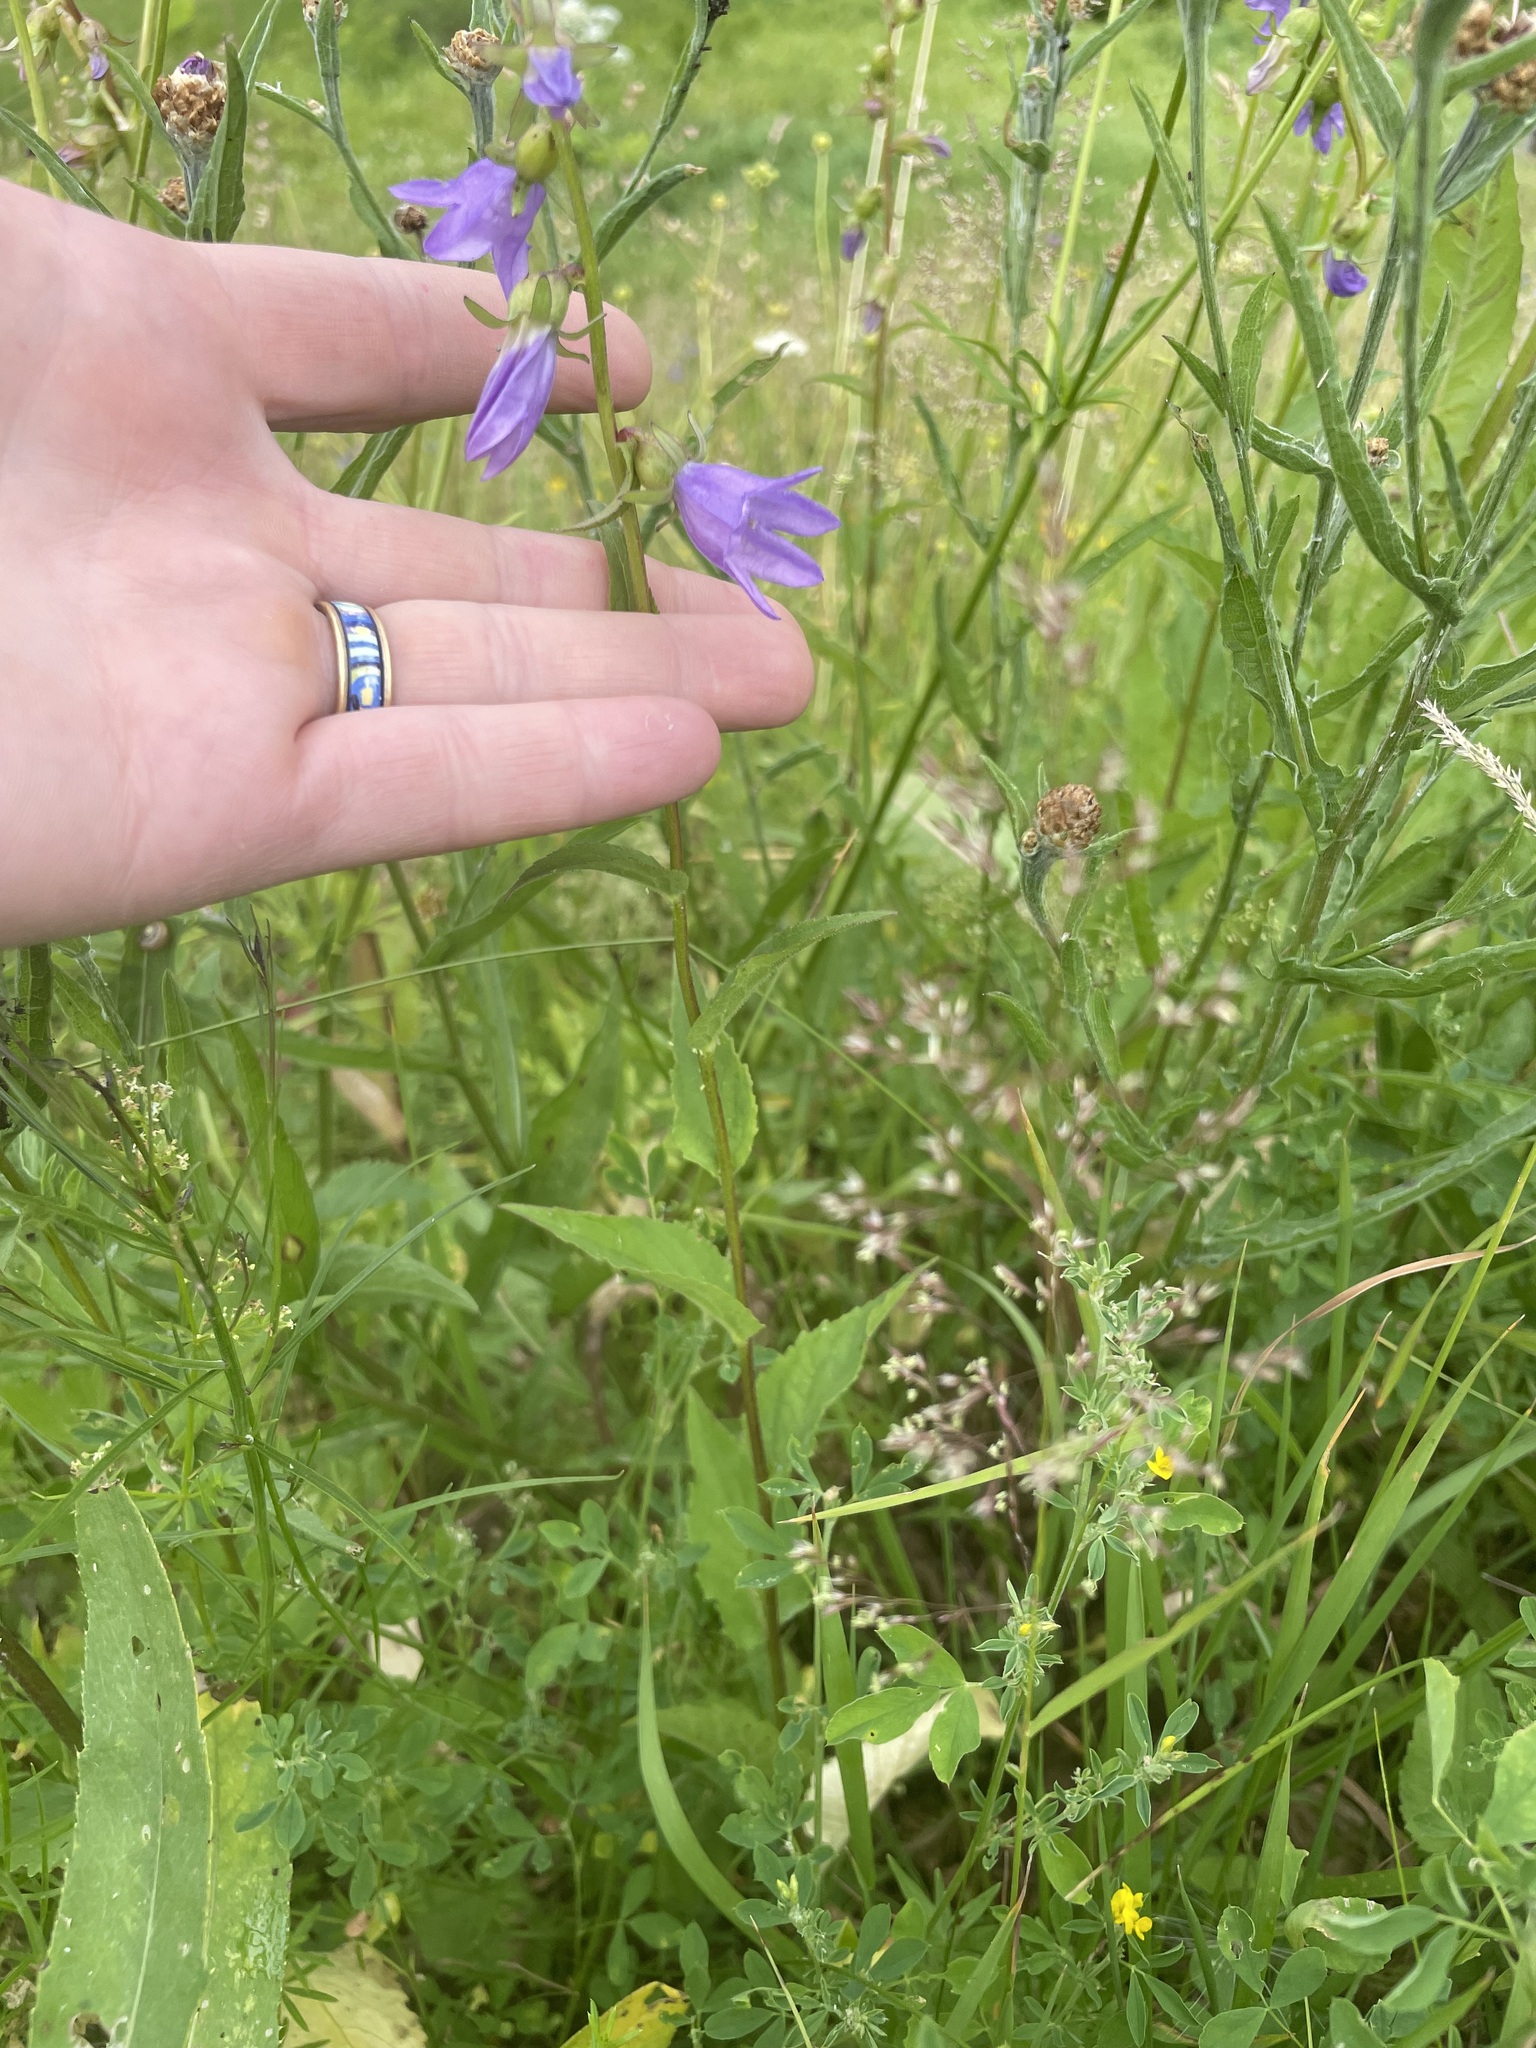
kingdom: Plantae
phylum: Tracheophyta
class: Magnoliopsida
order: Asterales
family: Campanulaceae
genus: Campanula
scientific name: Campanula rapunculoides
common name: Creeping bellflower
